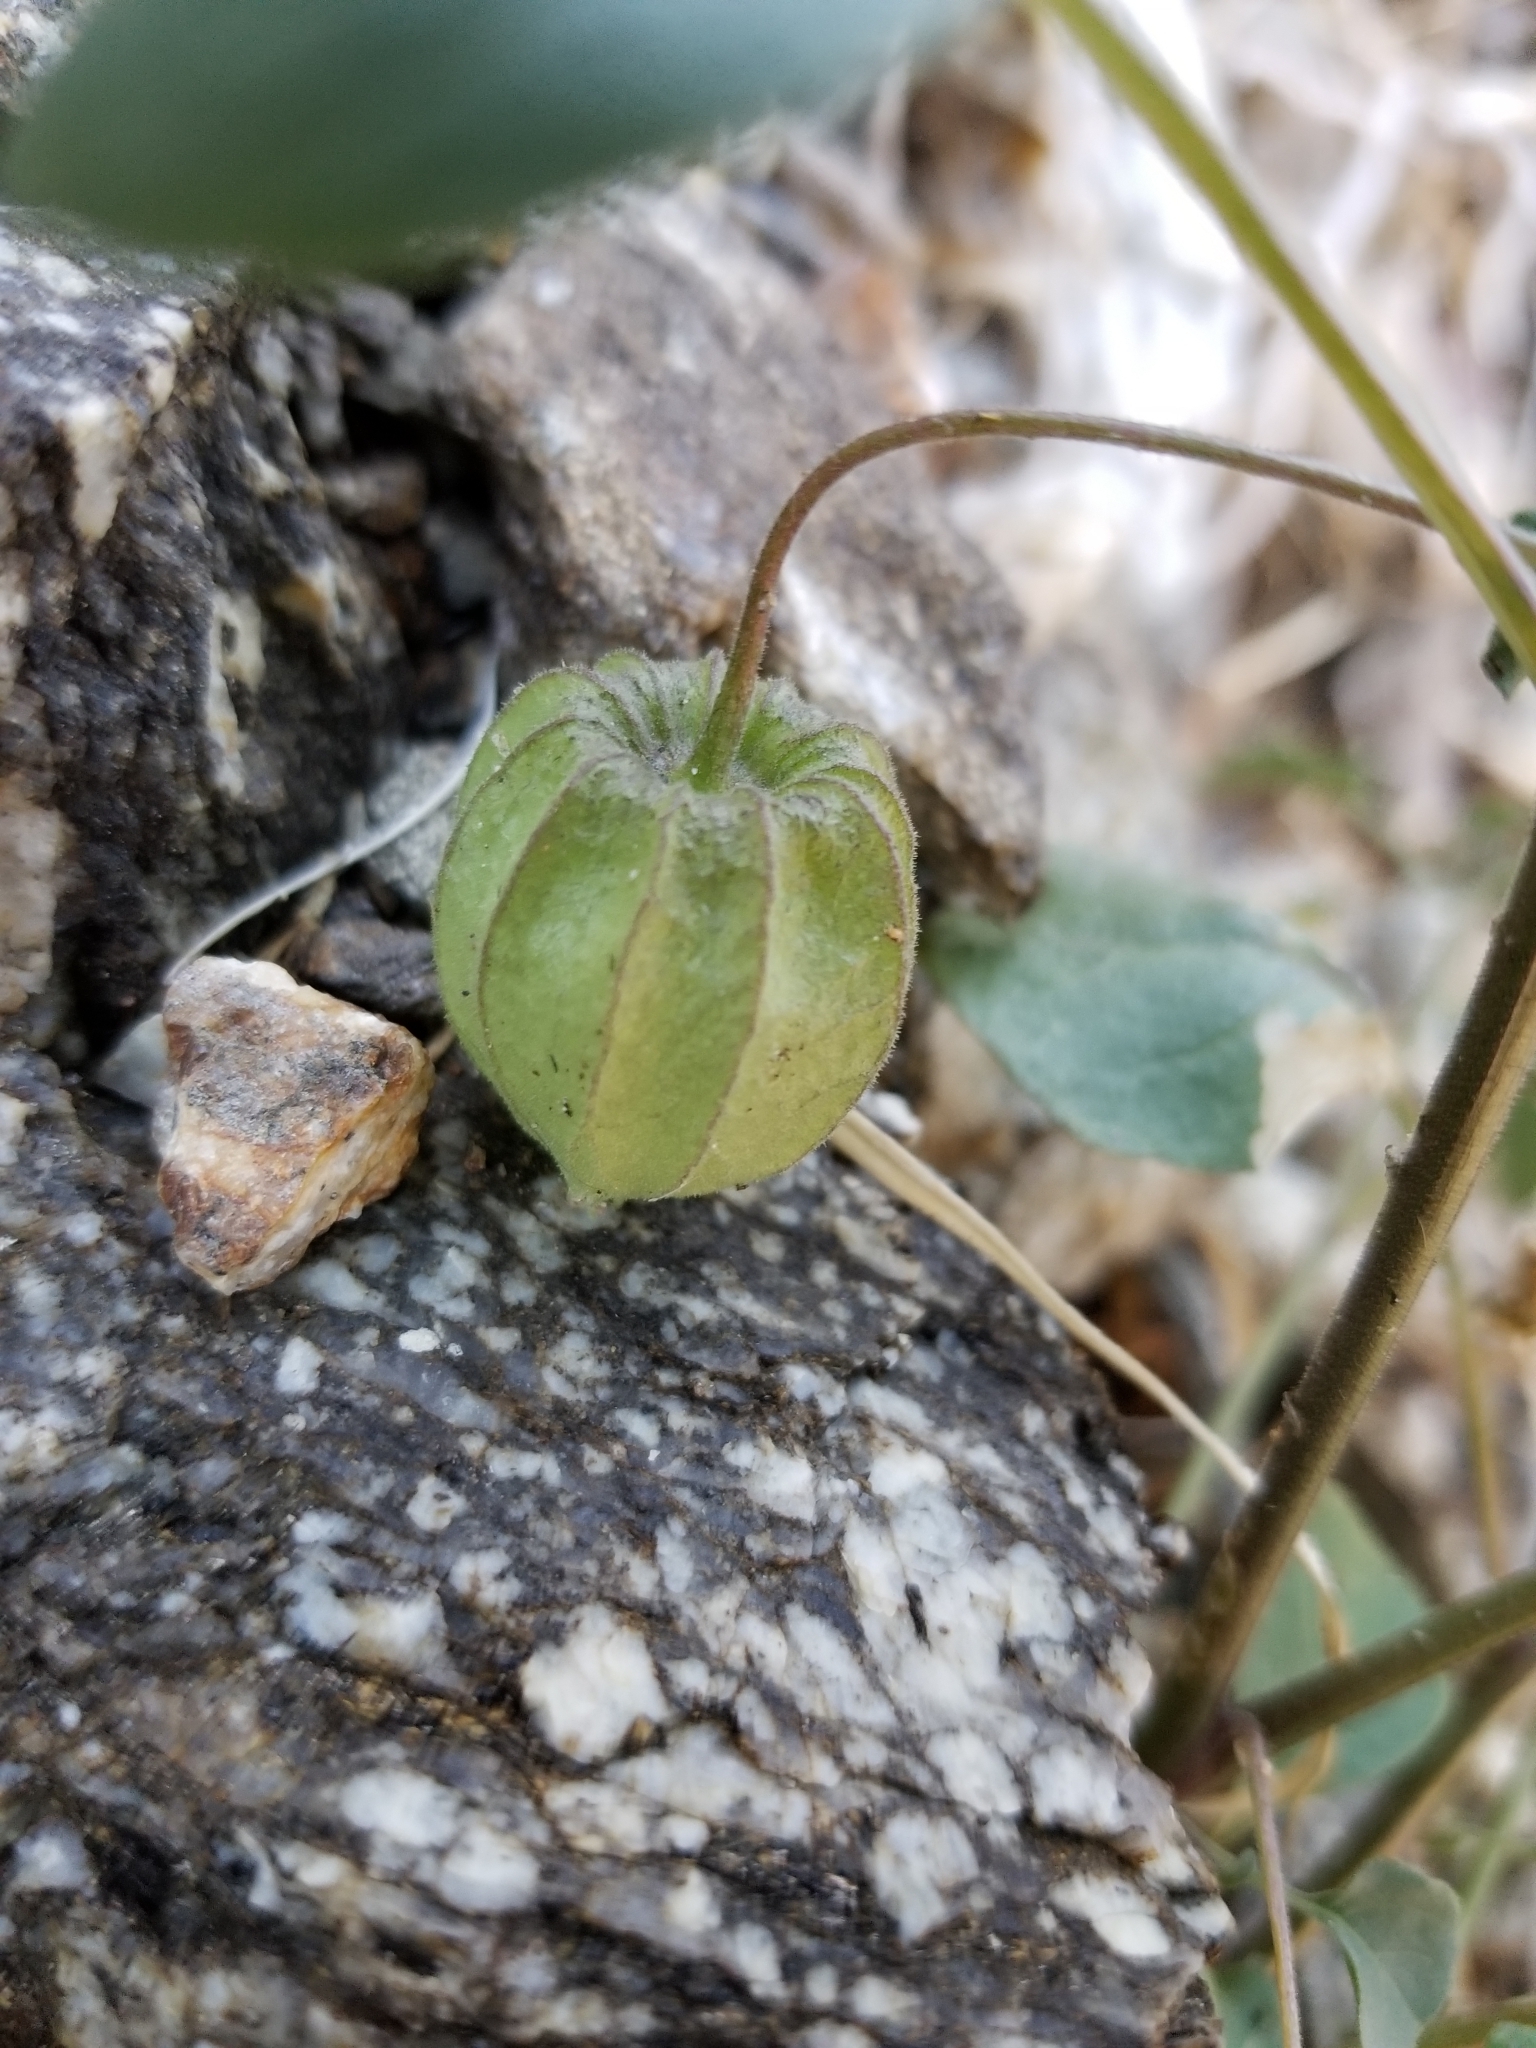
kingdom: Plantae
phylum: Tracheophyta
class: Magnoliopsida
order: Solanales
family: Solanaceae
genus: Physalis
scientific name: Physalis crassifolia
